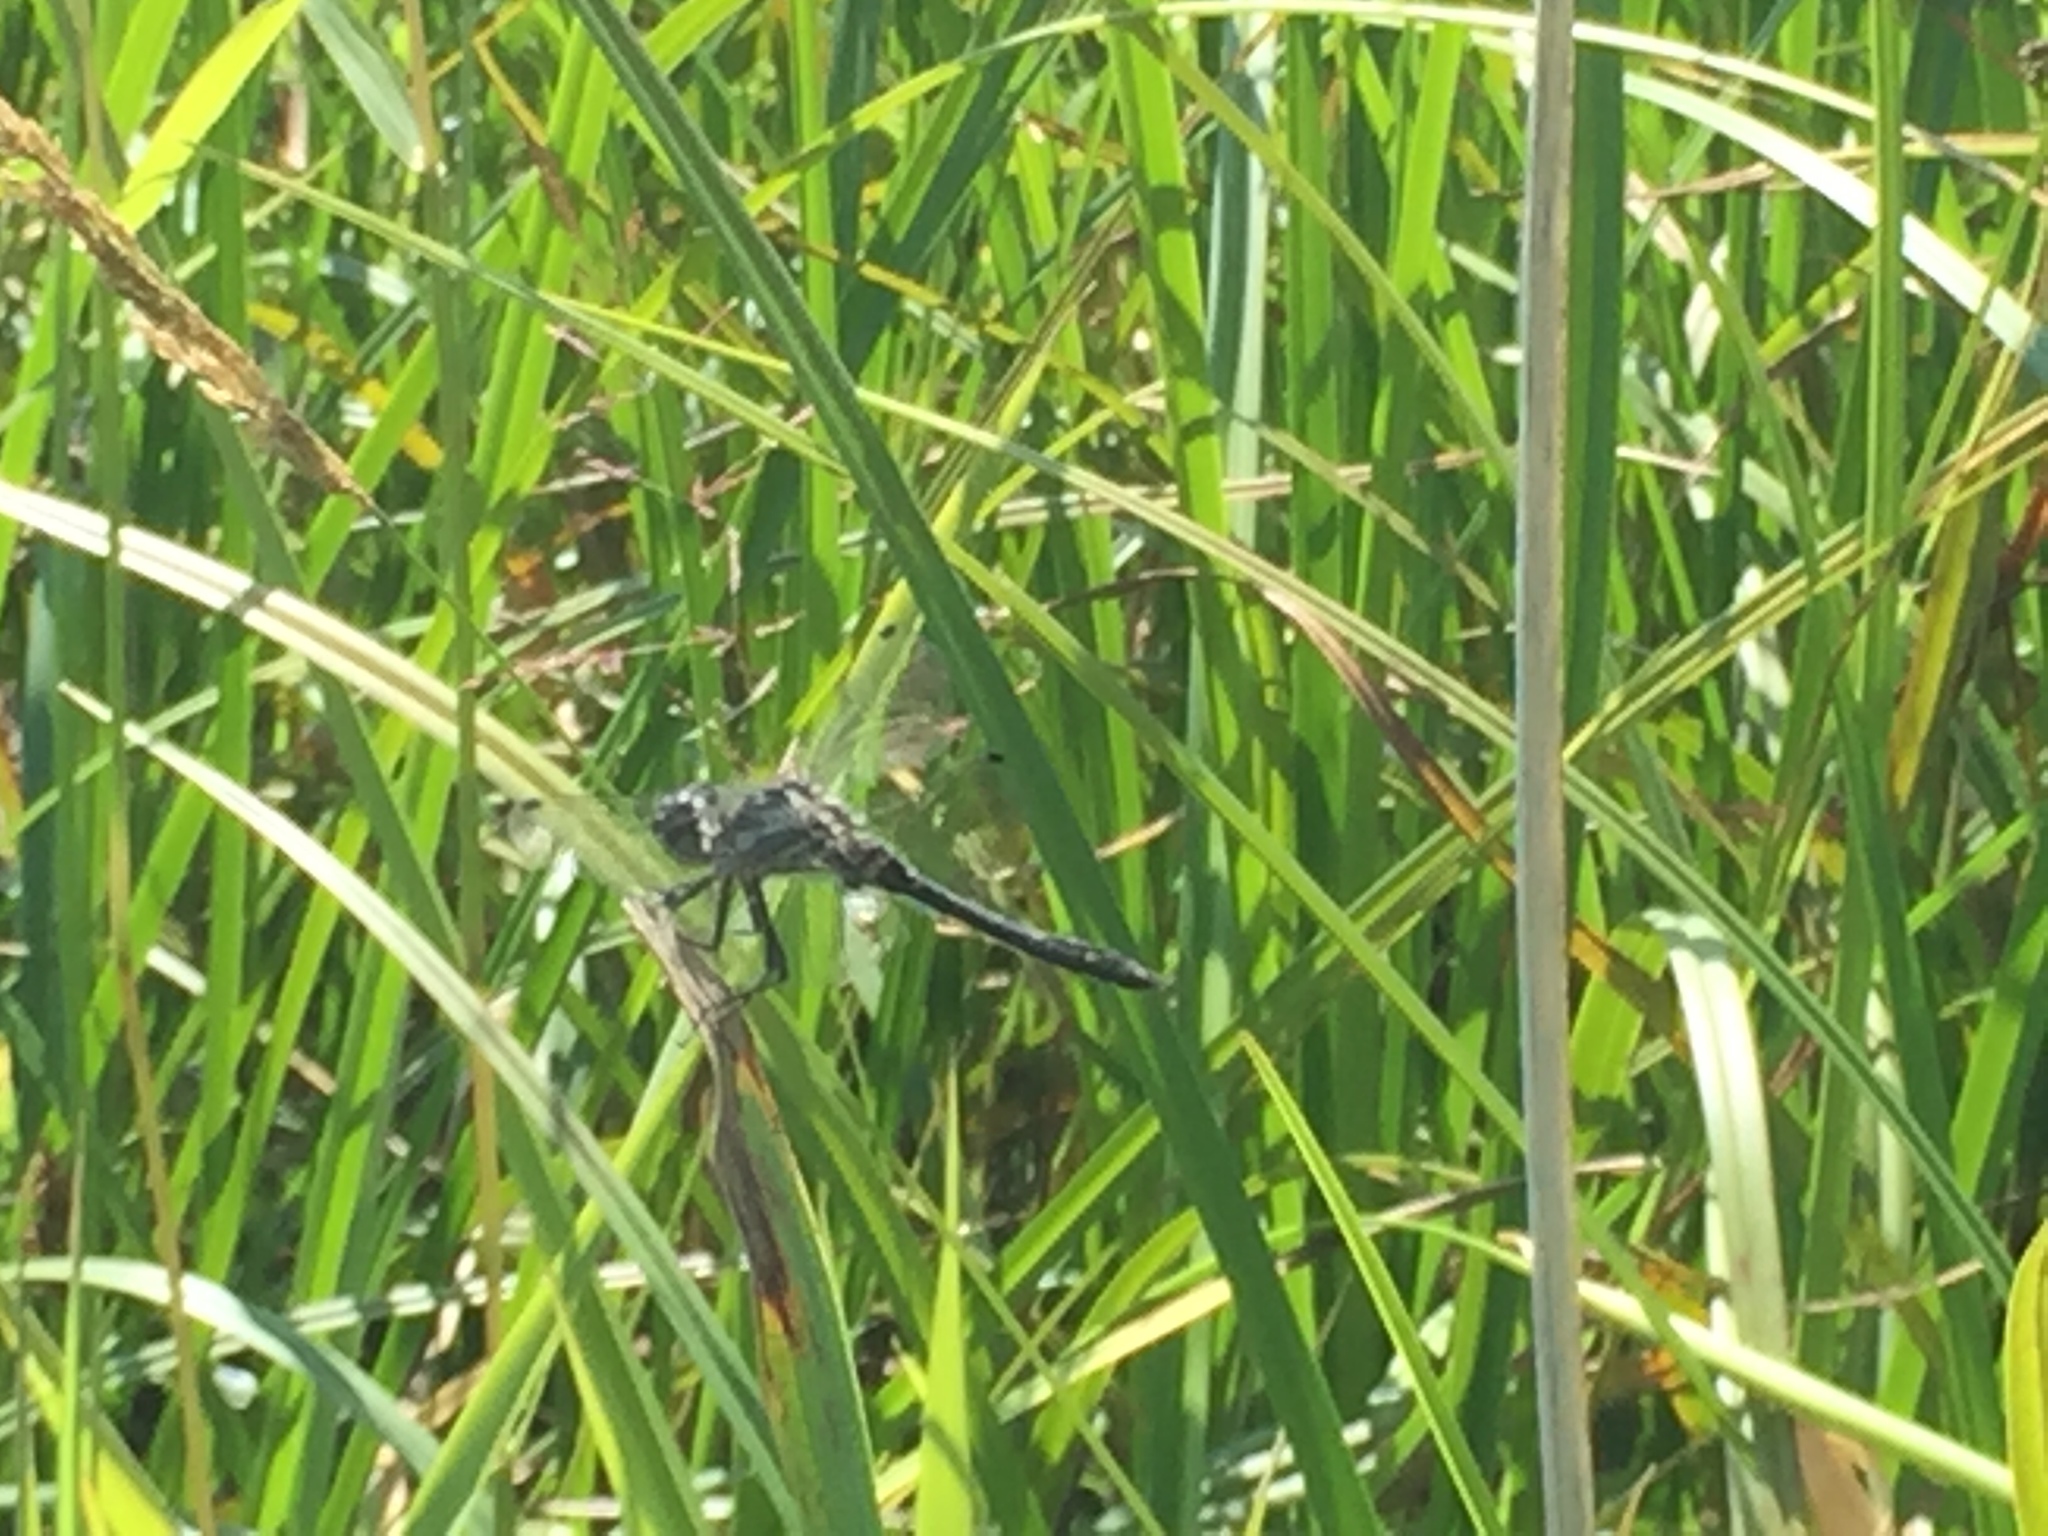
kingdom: Animalia
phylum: Arthropoda
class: Insecta
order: Odonata
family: Libellulidae
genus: Sympetrum
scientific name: Sympetrum danae
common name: Black darter
